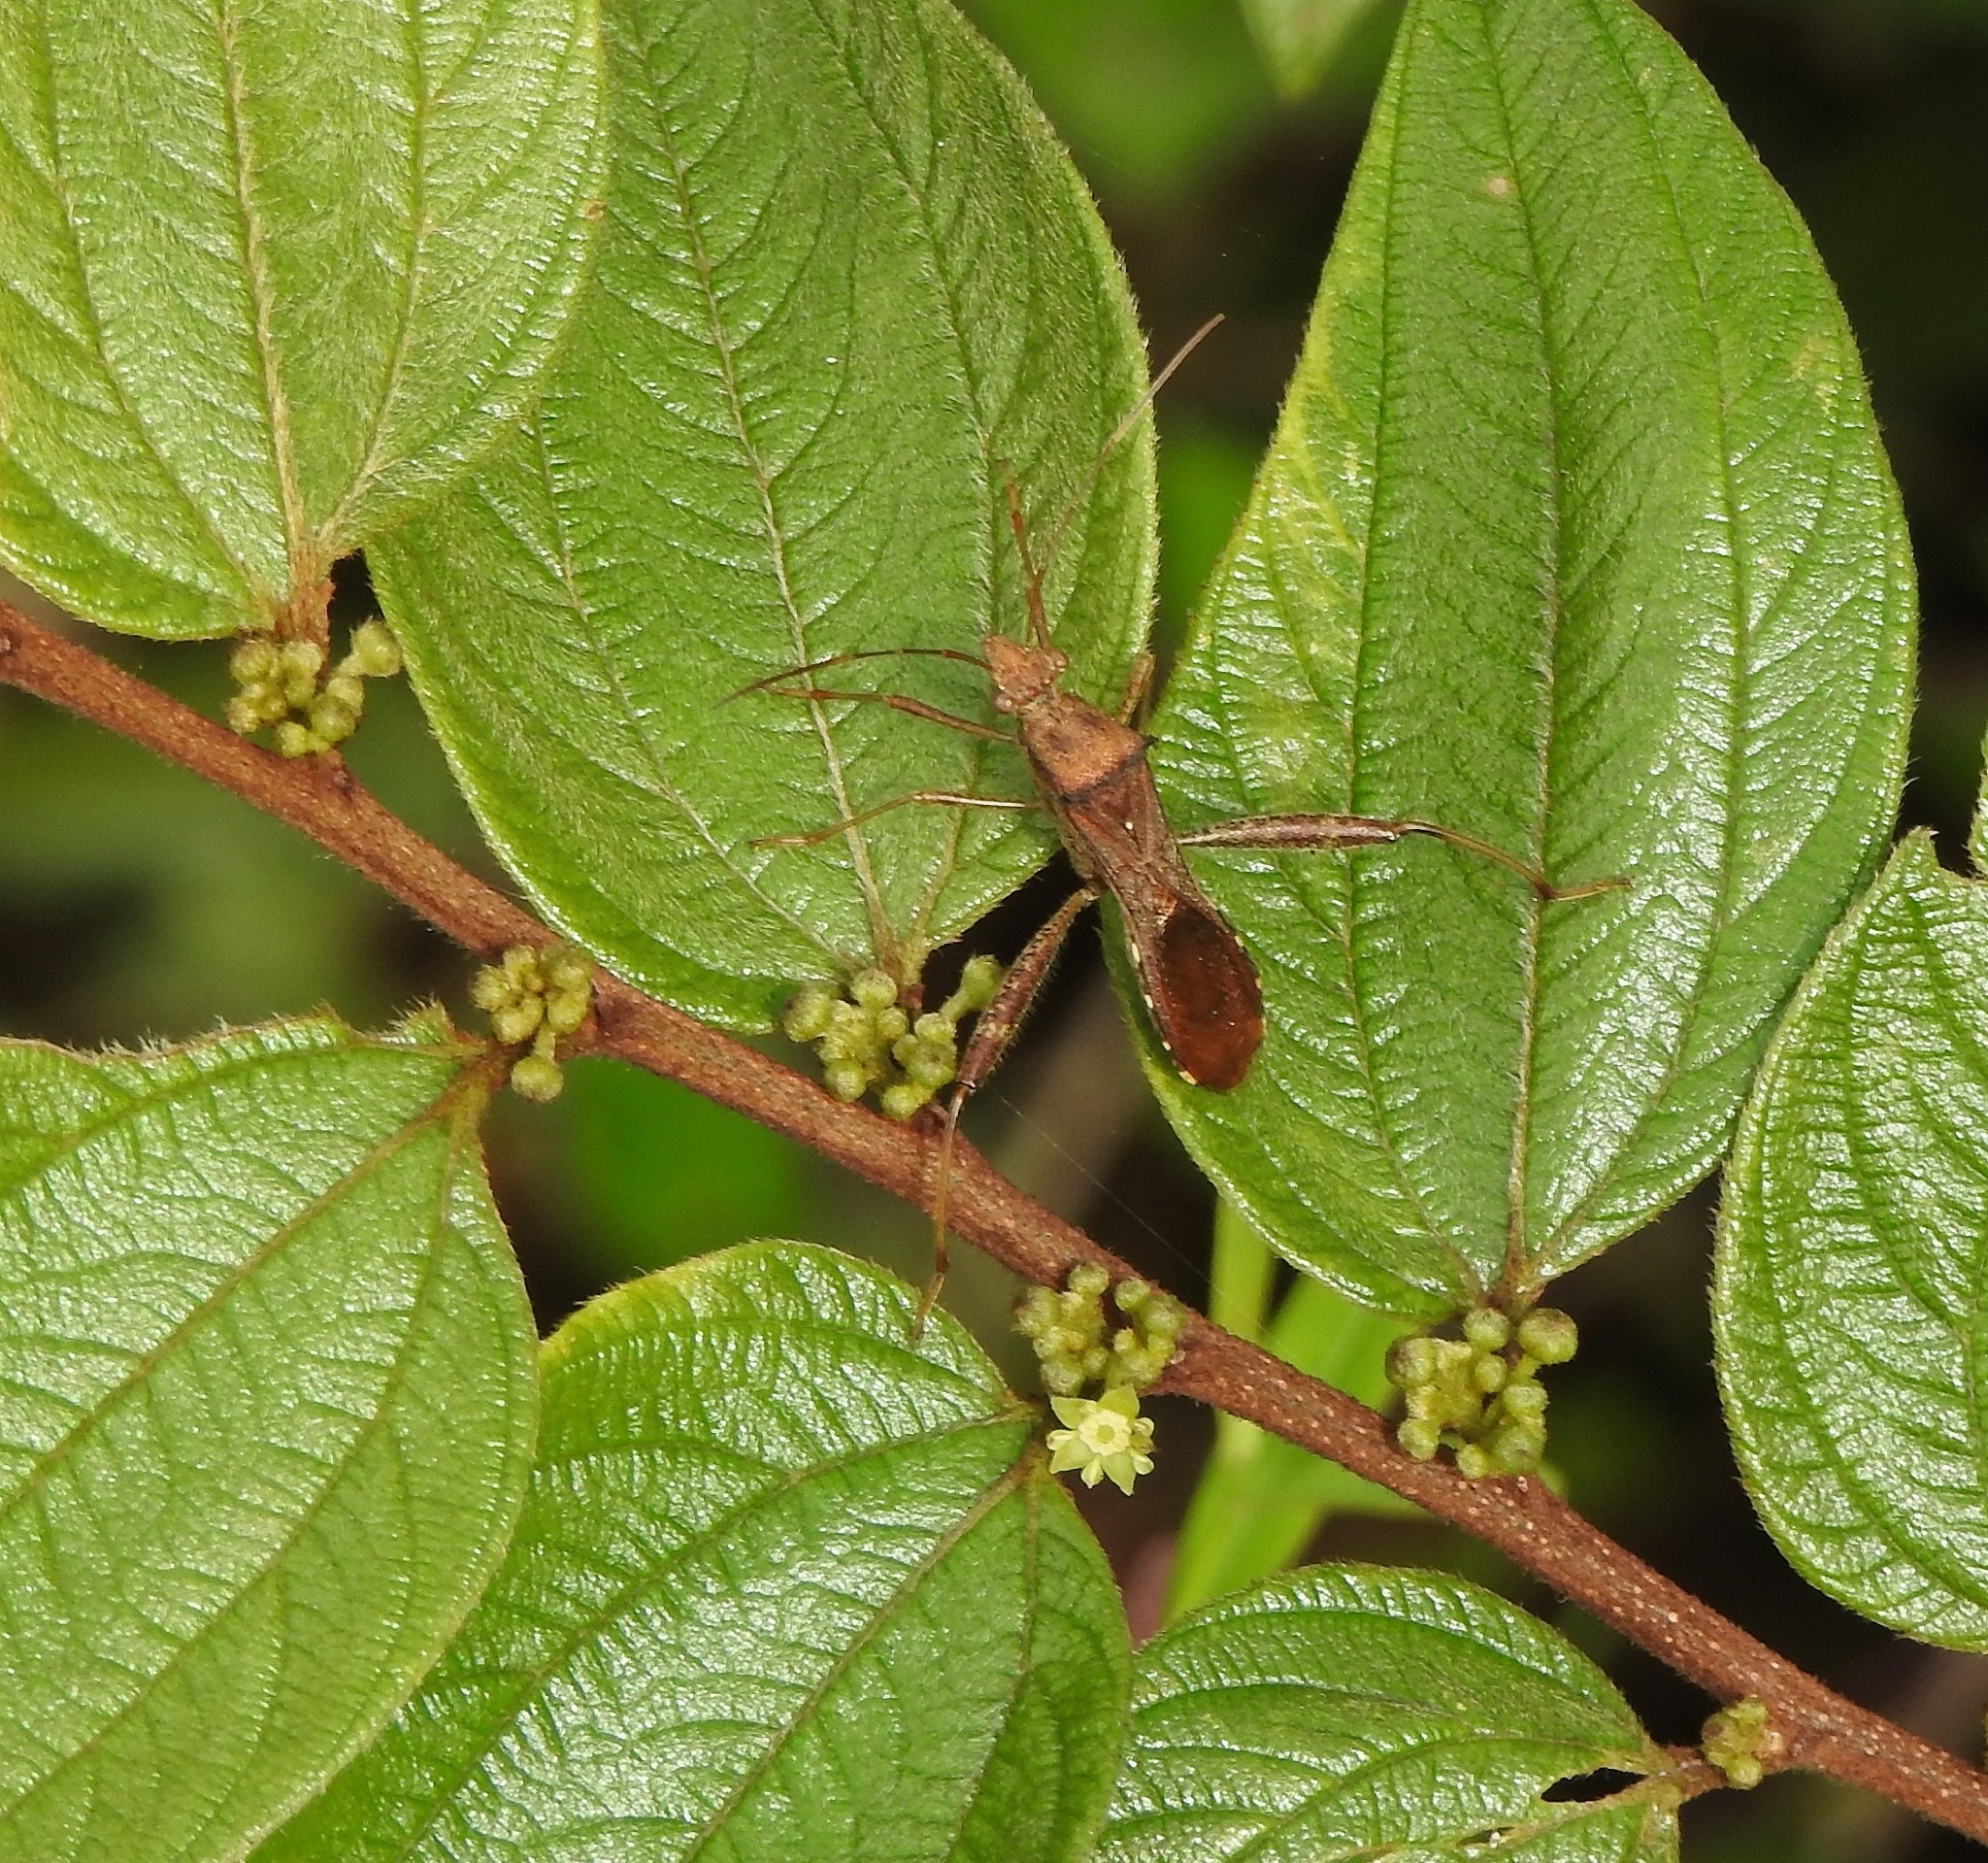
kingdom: Animalia
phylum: Arthropoda
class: Insecta
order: Hemiptera
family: Alydidae
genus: Riptortus
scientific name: Riptortus pedestris
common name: Bean bug
